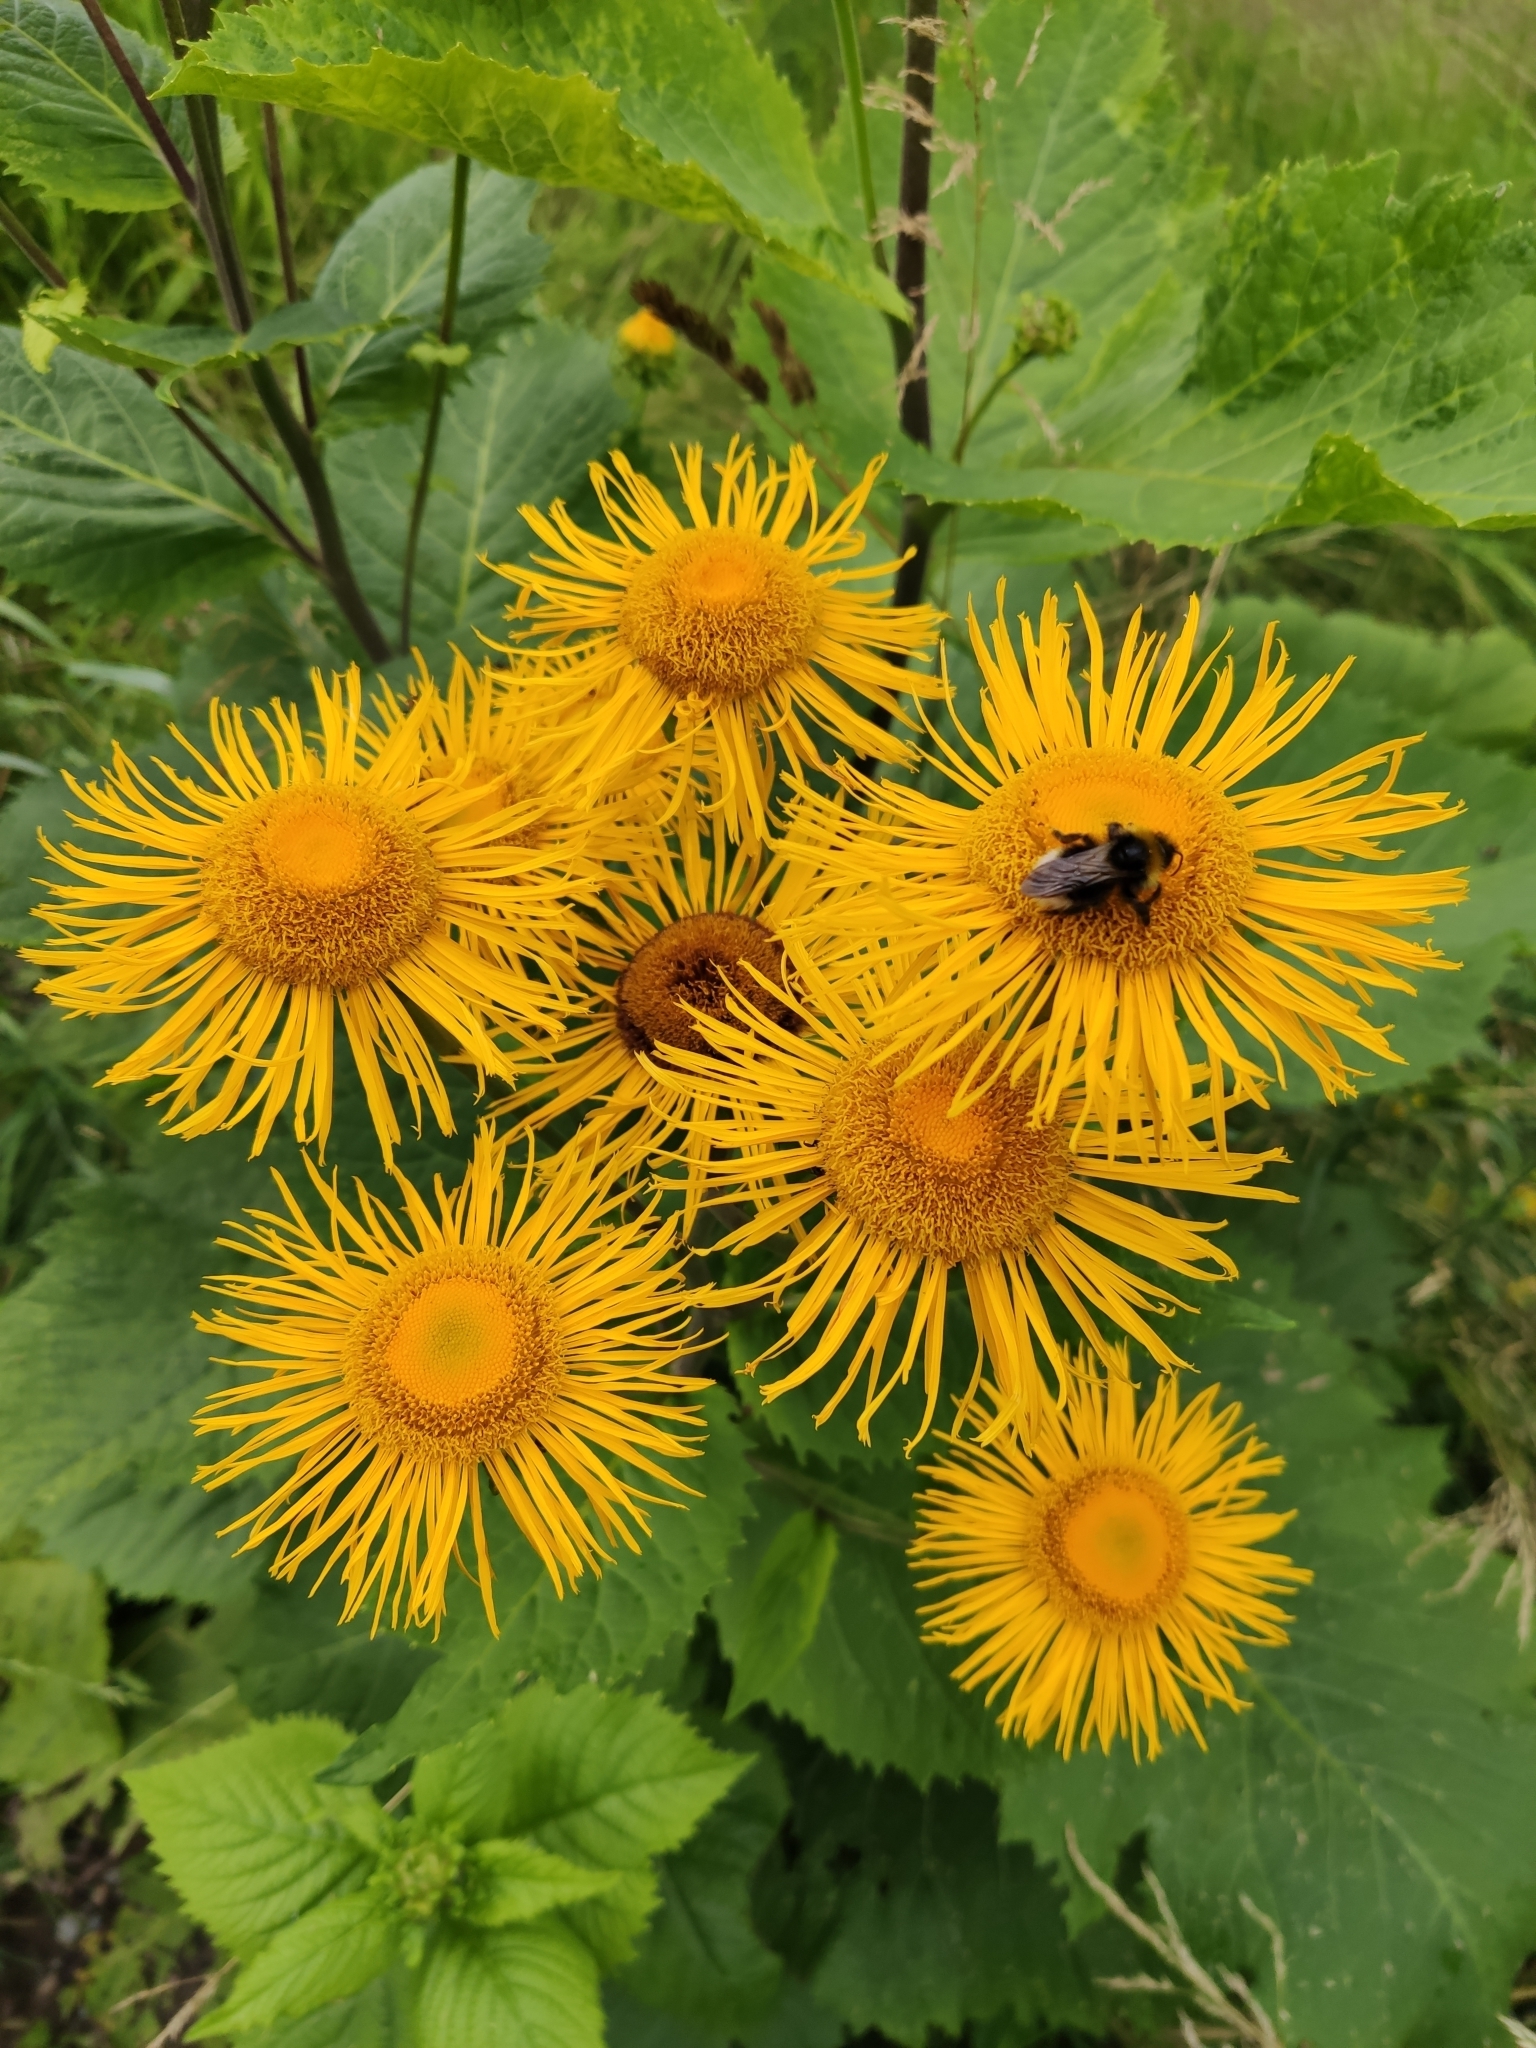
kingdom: Plantae
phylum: Tracheophyta
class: Magnoliopsida
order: Asterales
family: Asteraceae
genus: Telekia
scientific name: Telekia speciosa
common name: Yellow oxeye
